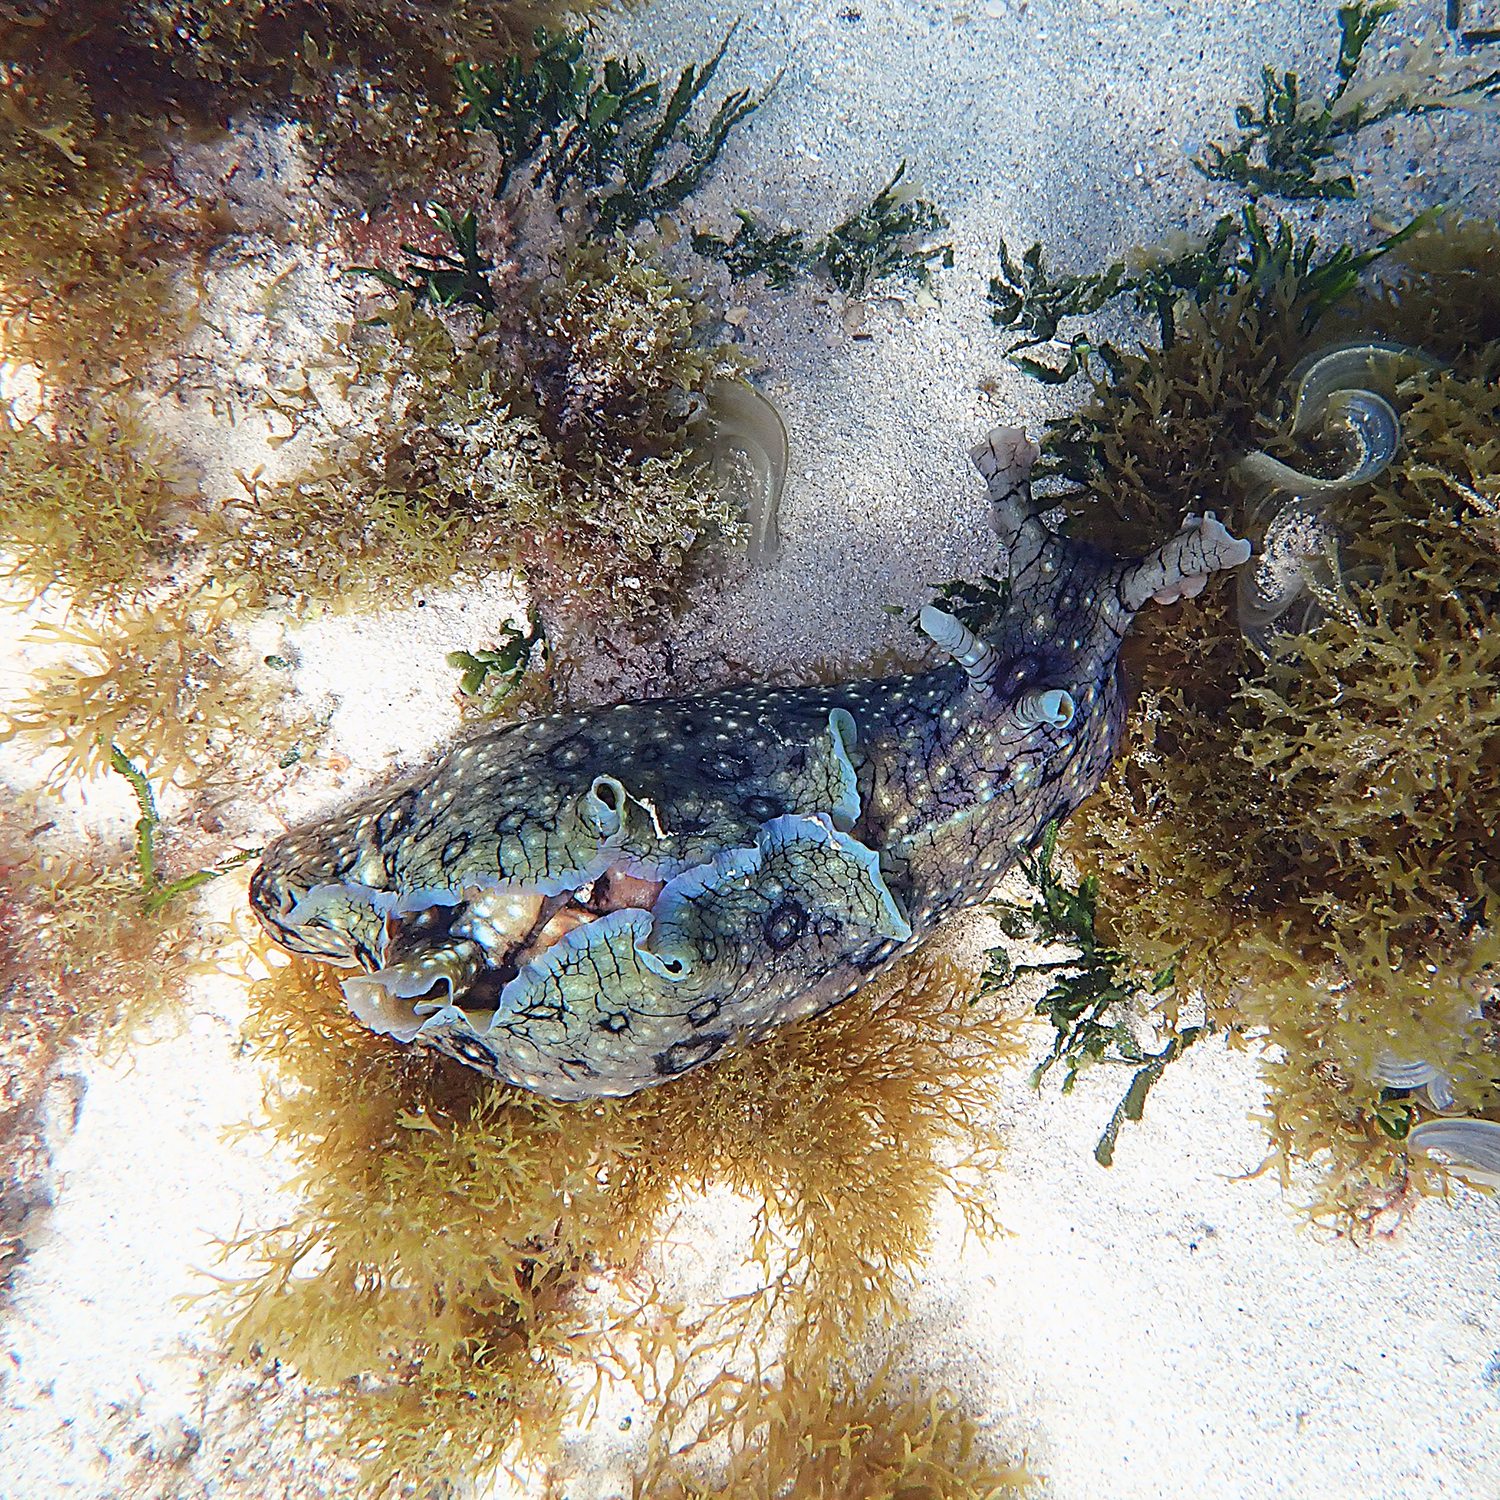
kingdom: Animalia
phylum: Mollusca
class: Gastropoda
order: Aplysiida
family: Aplysiidae
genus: Aplysia
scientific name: Aplysia argus
